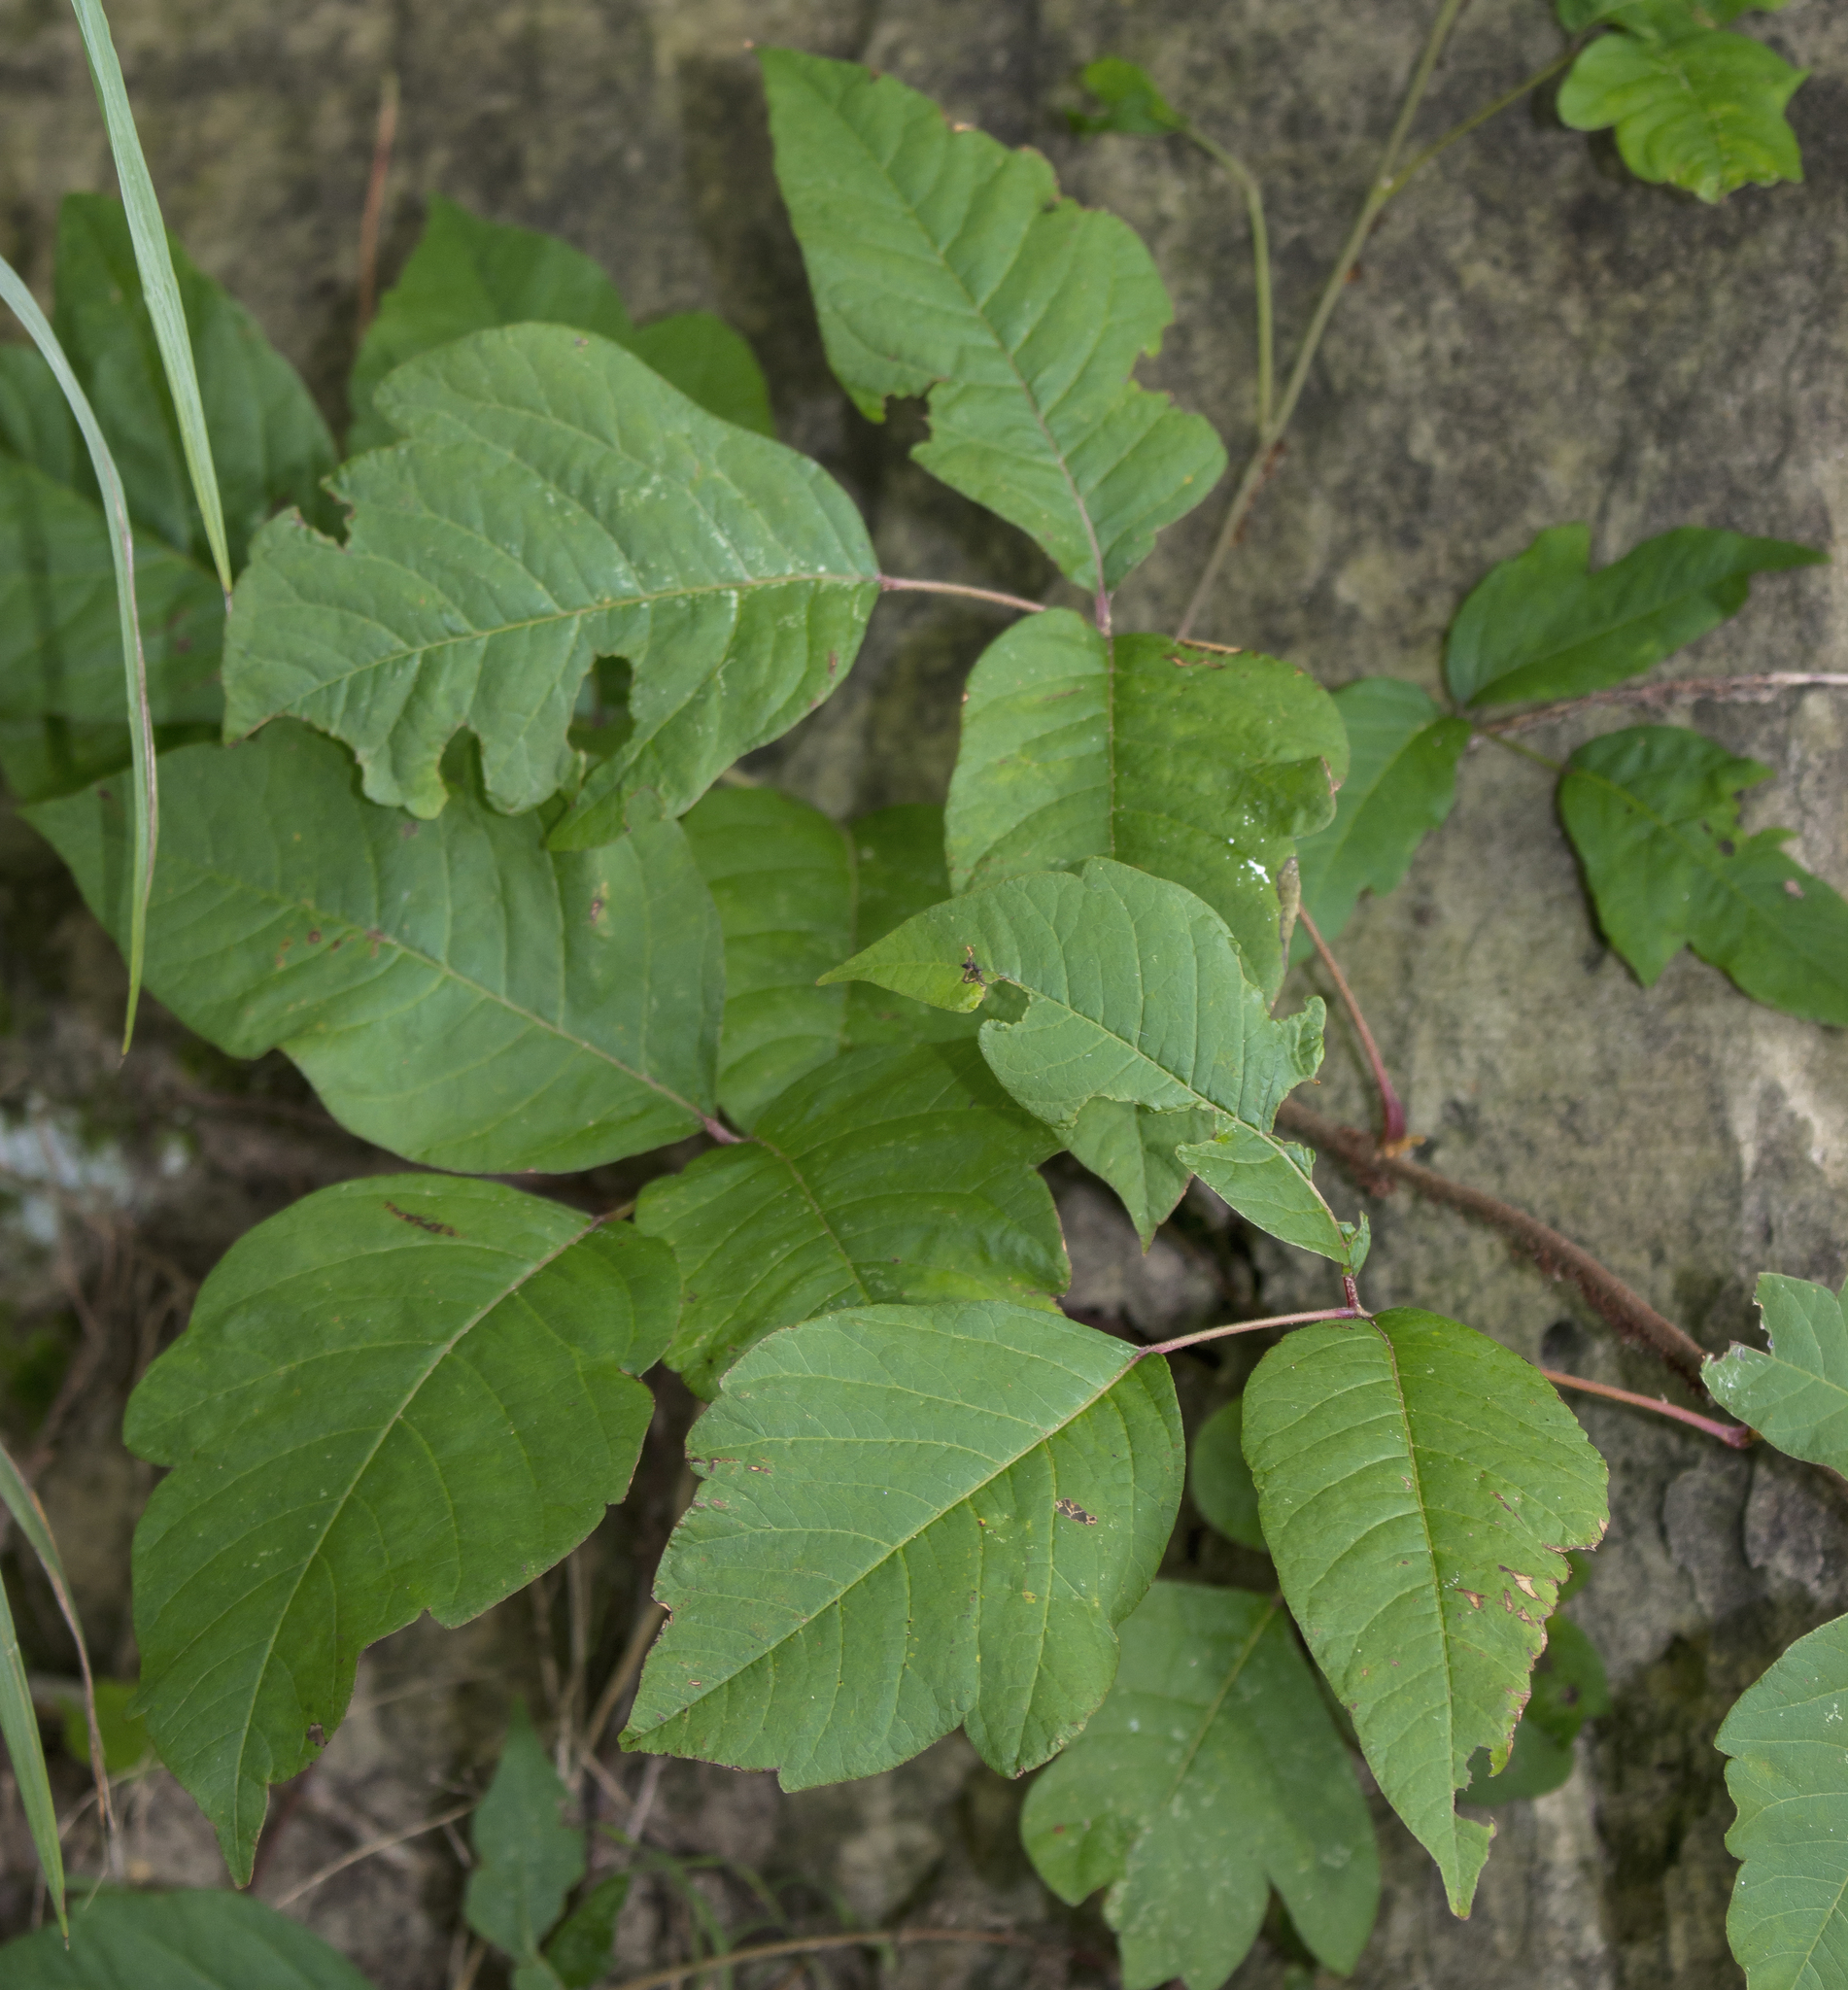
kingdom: Plantae
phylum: Tracheophyta
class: Magnoliopsida
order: Sapindales
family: Anacardiaceae
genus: Toxicodendron
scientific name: Toxicodendron radicans
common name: Poison ivy
